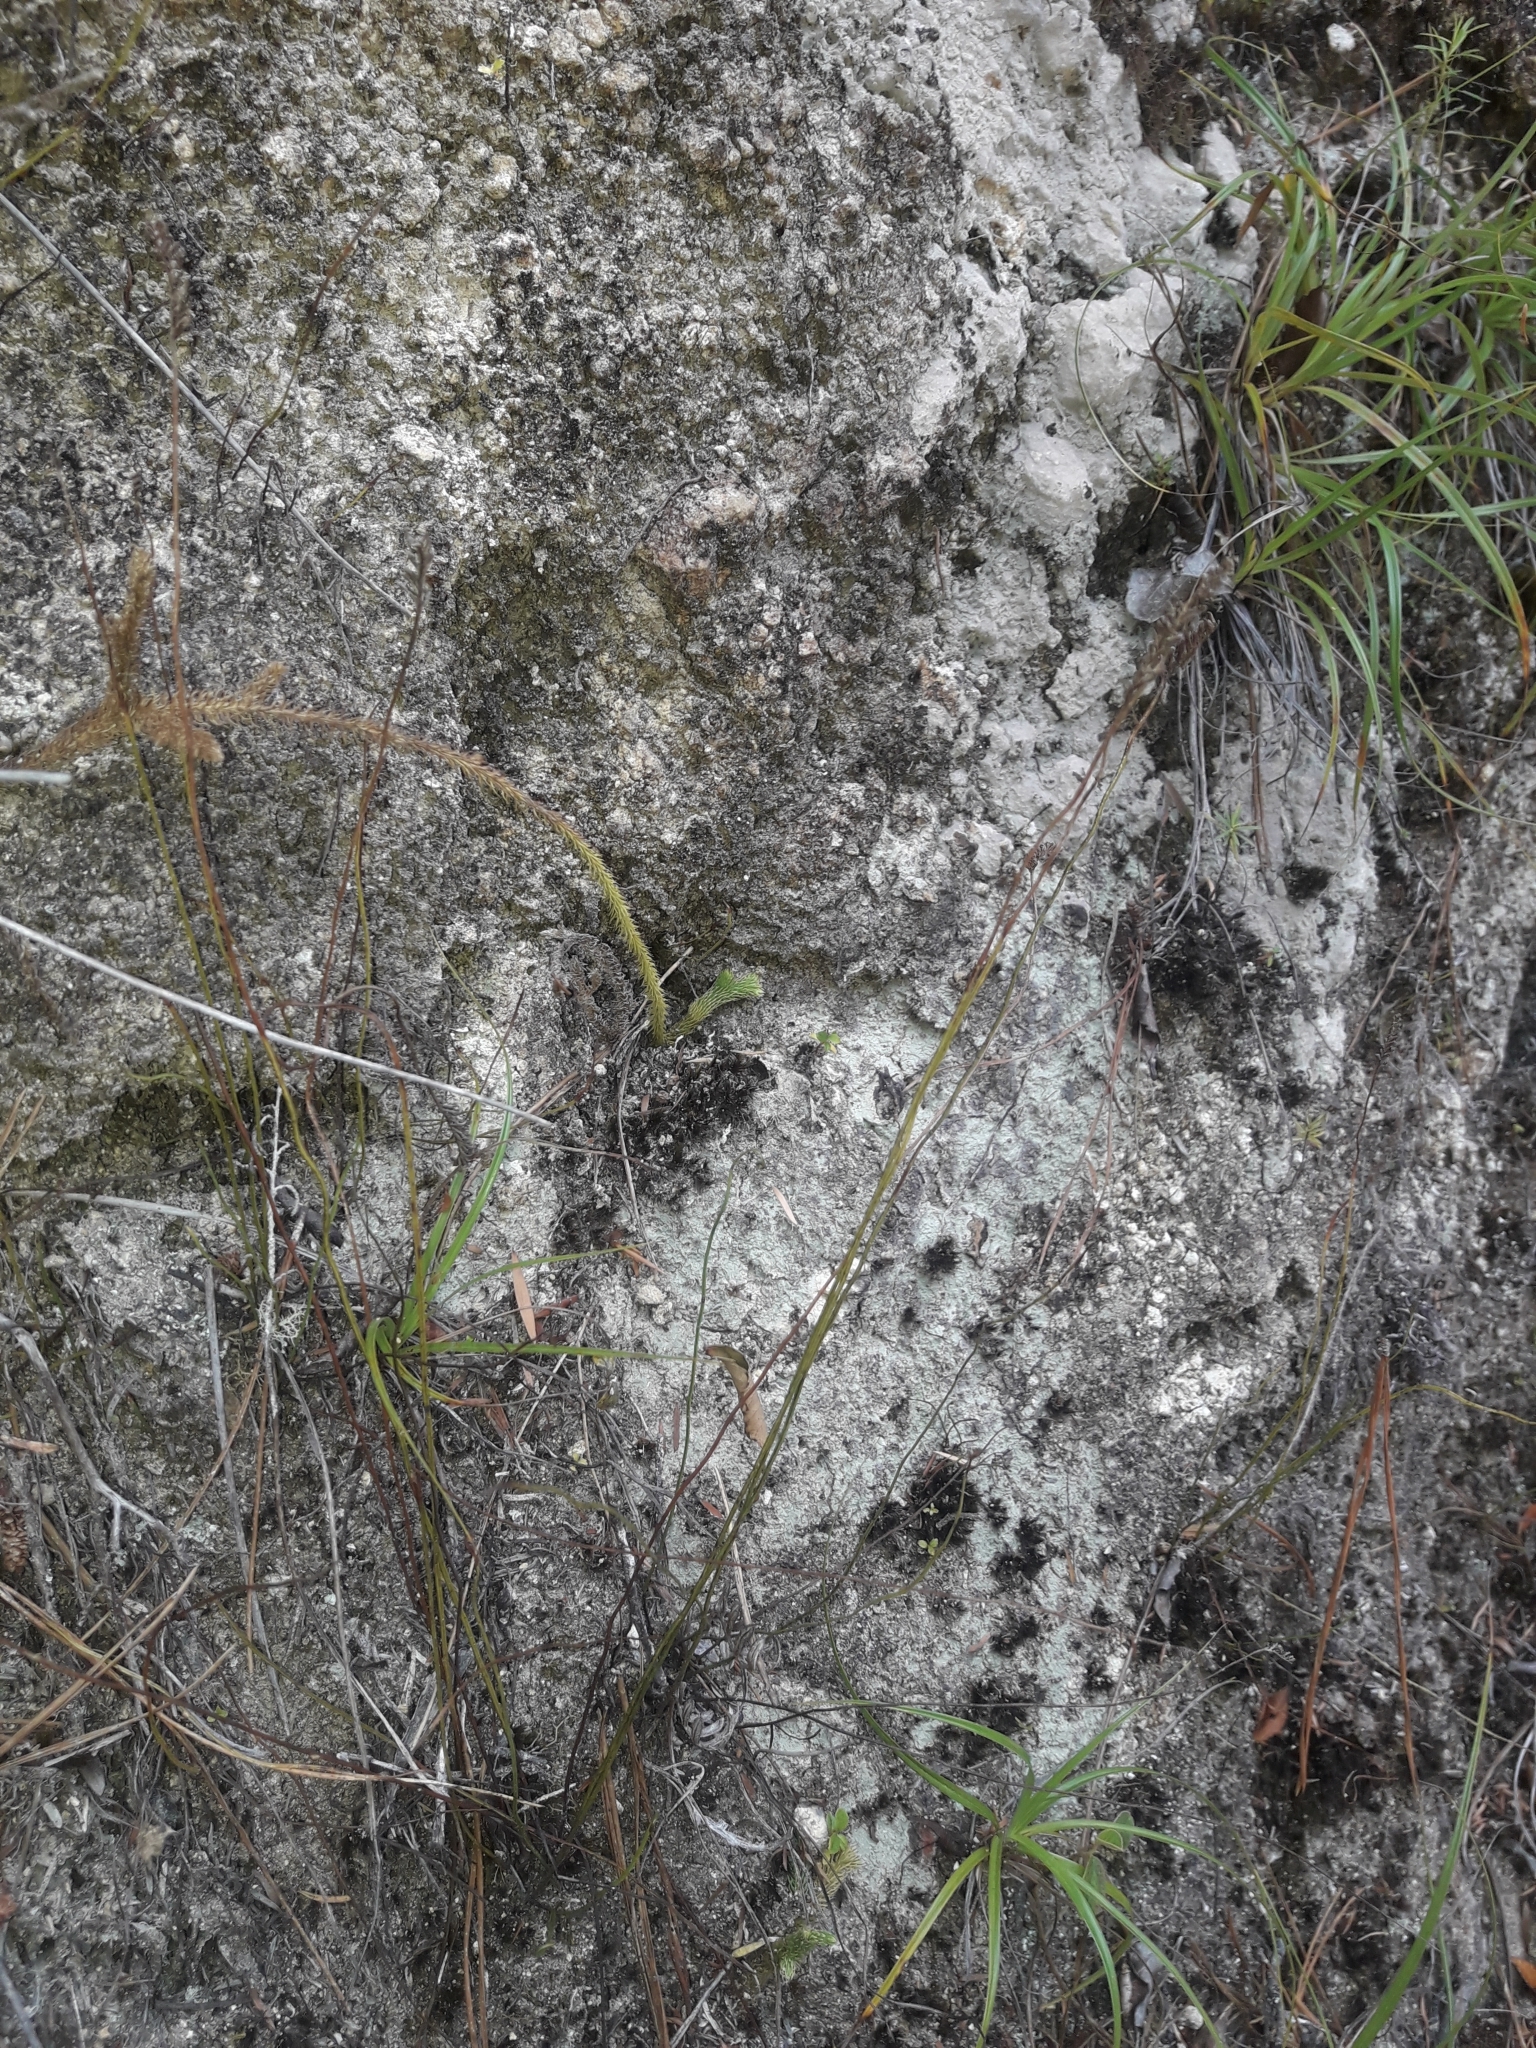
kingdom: Plantae
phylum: Tracheophyta
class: Polypodiopsida
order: Schizaeales
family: Schizaeaceae
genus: Microschizaea
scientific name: Microschizaea fistulosa
